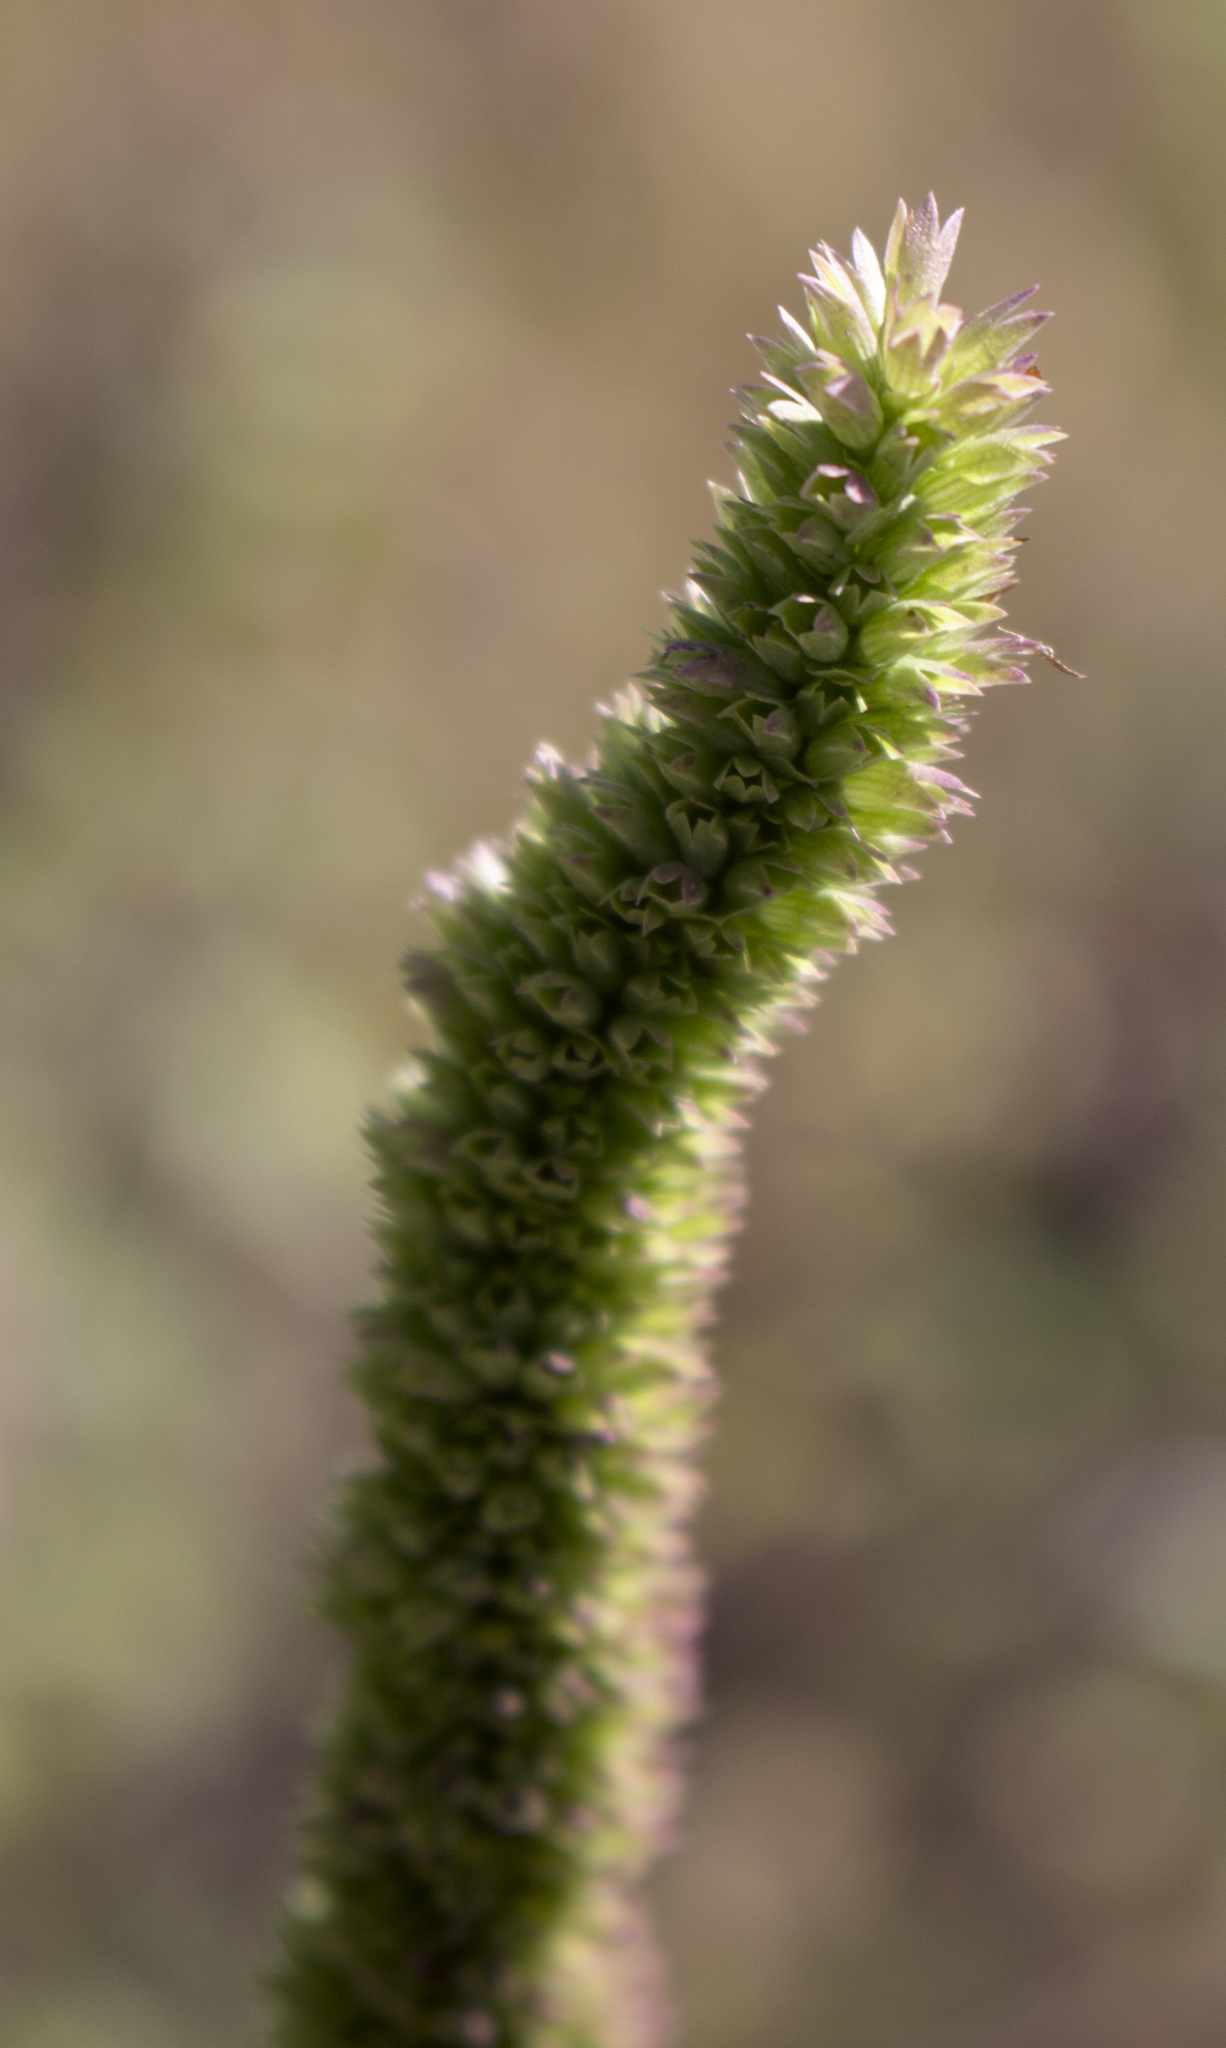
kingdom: Plantae
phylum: Tracheophyta
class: Magnoliopsida
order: Lamiales
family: Lamiaceae
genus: Agastache
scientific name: Agastache scrophulariifolia
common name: Figwort giant hyssop
